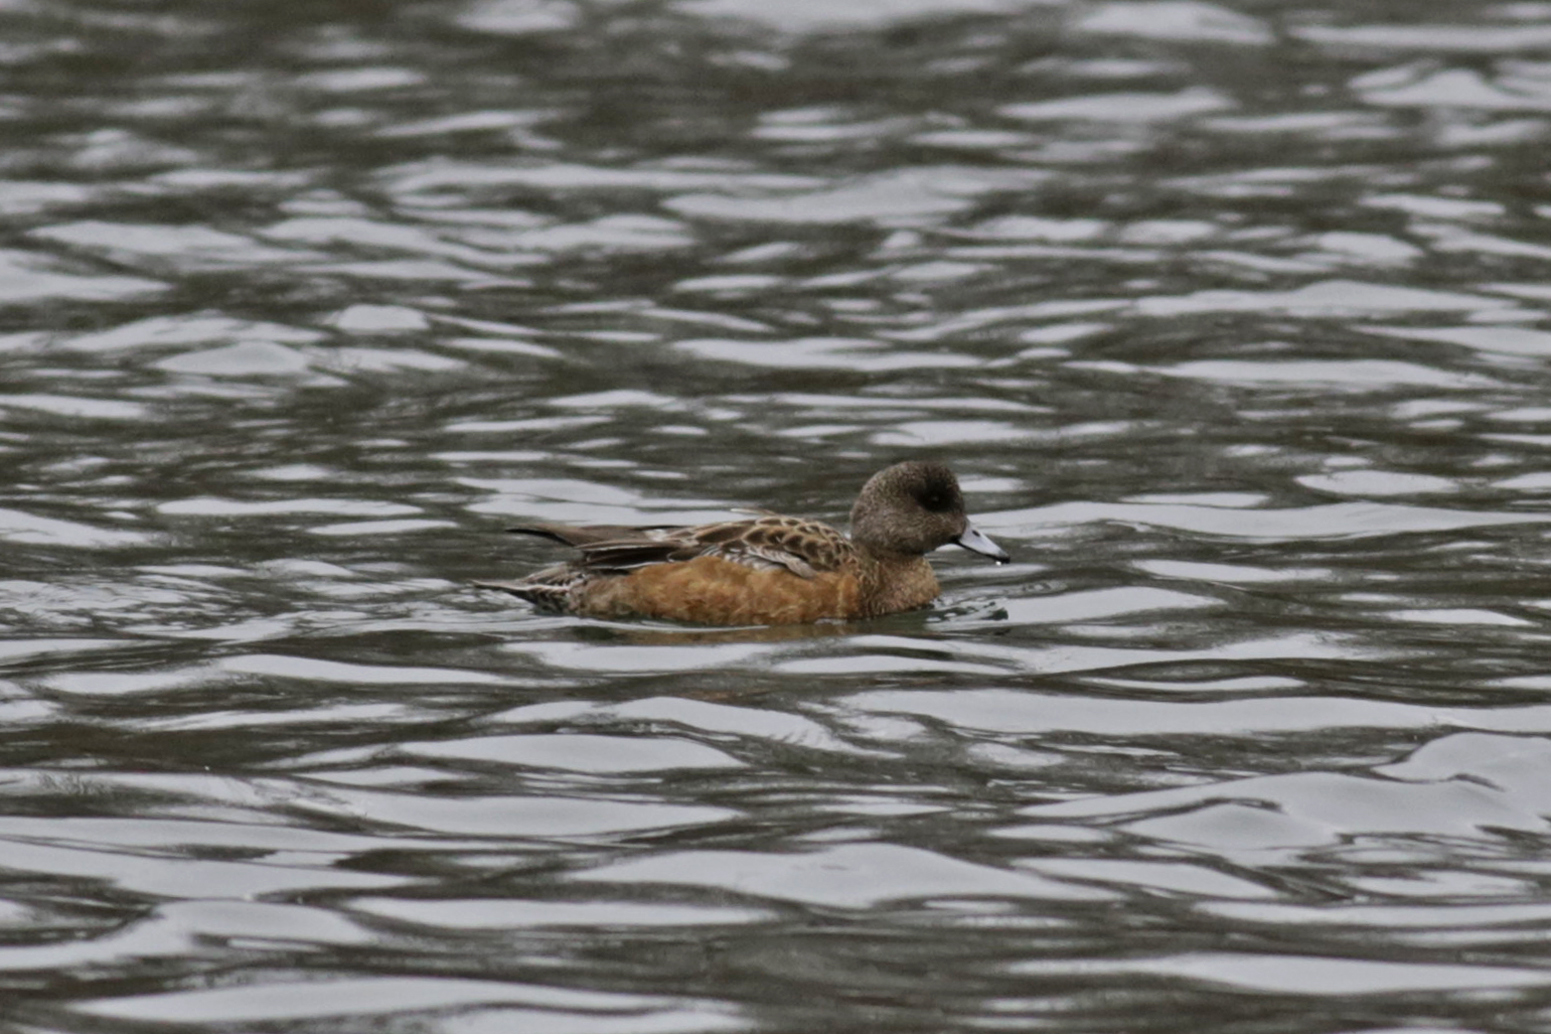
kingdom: Animalia
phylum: Chordata
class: Aves
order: Anseriformes
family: Anatidae
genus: Mareca
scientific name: Mareca americana
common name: American wigeon
